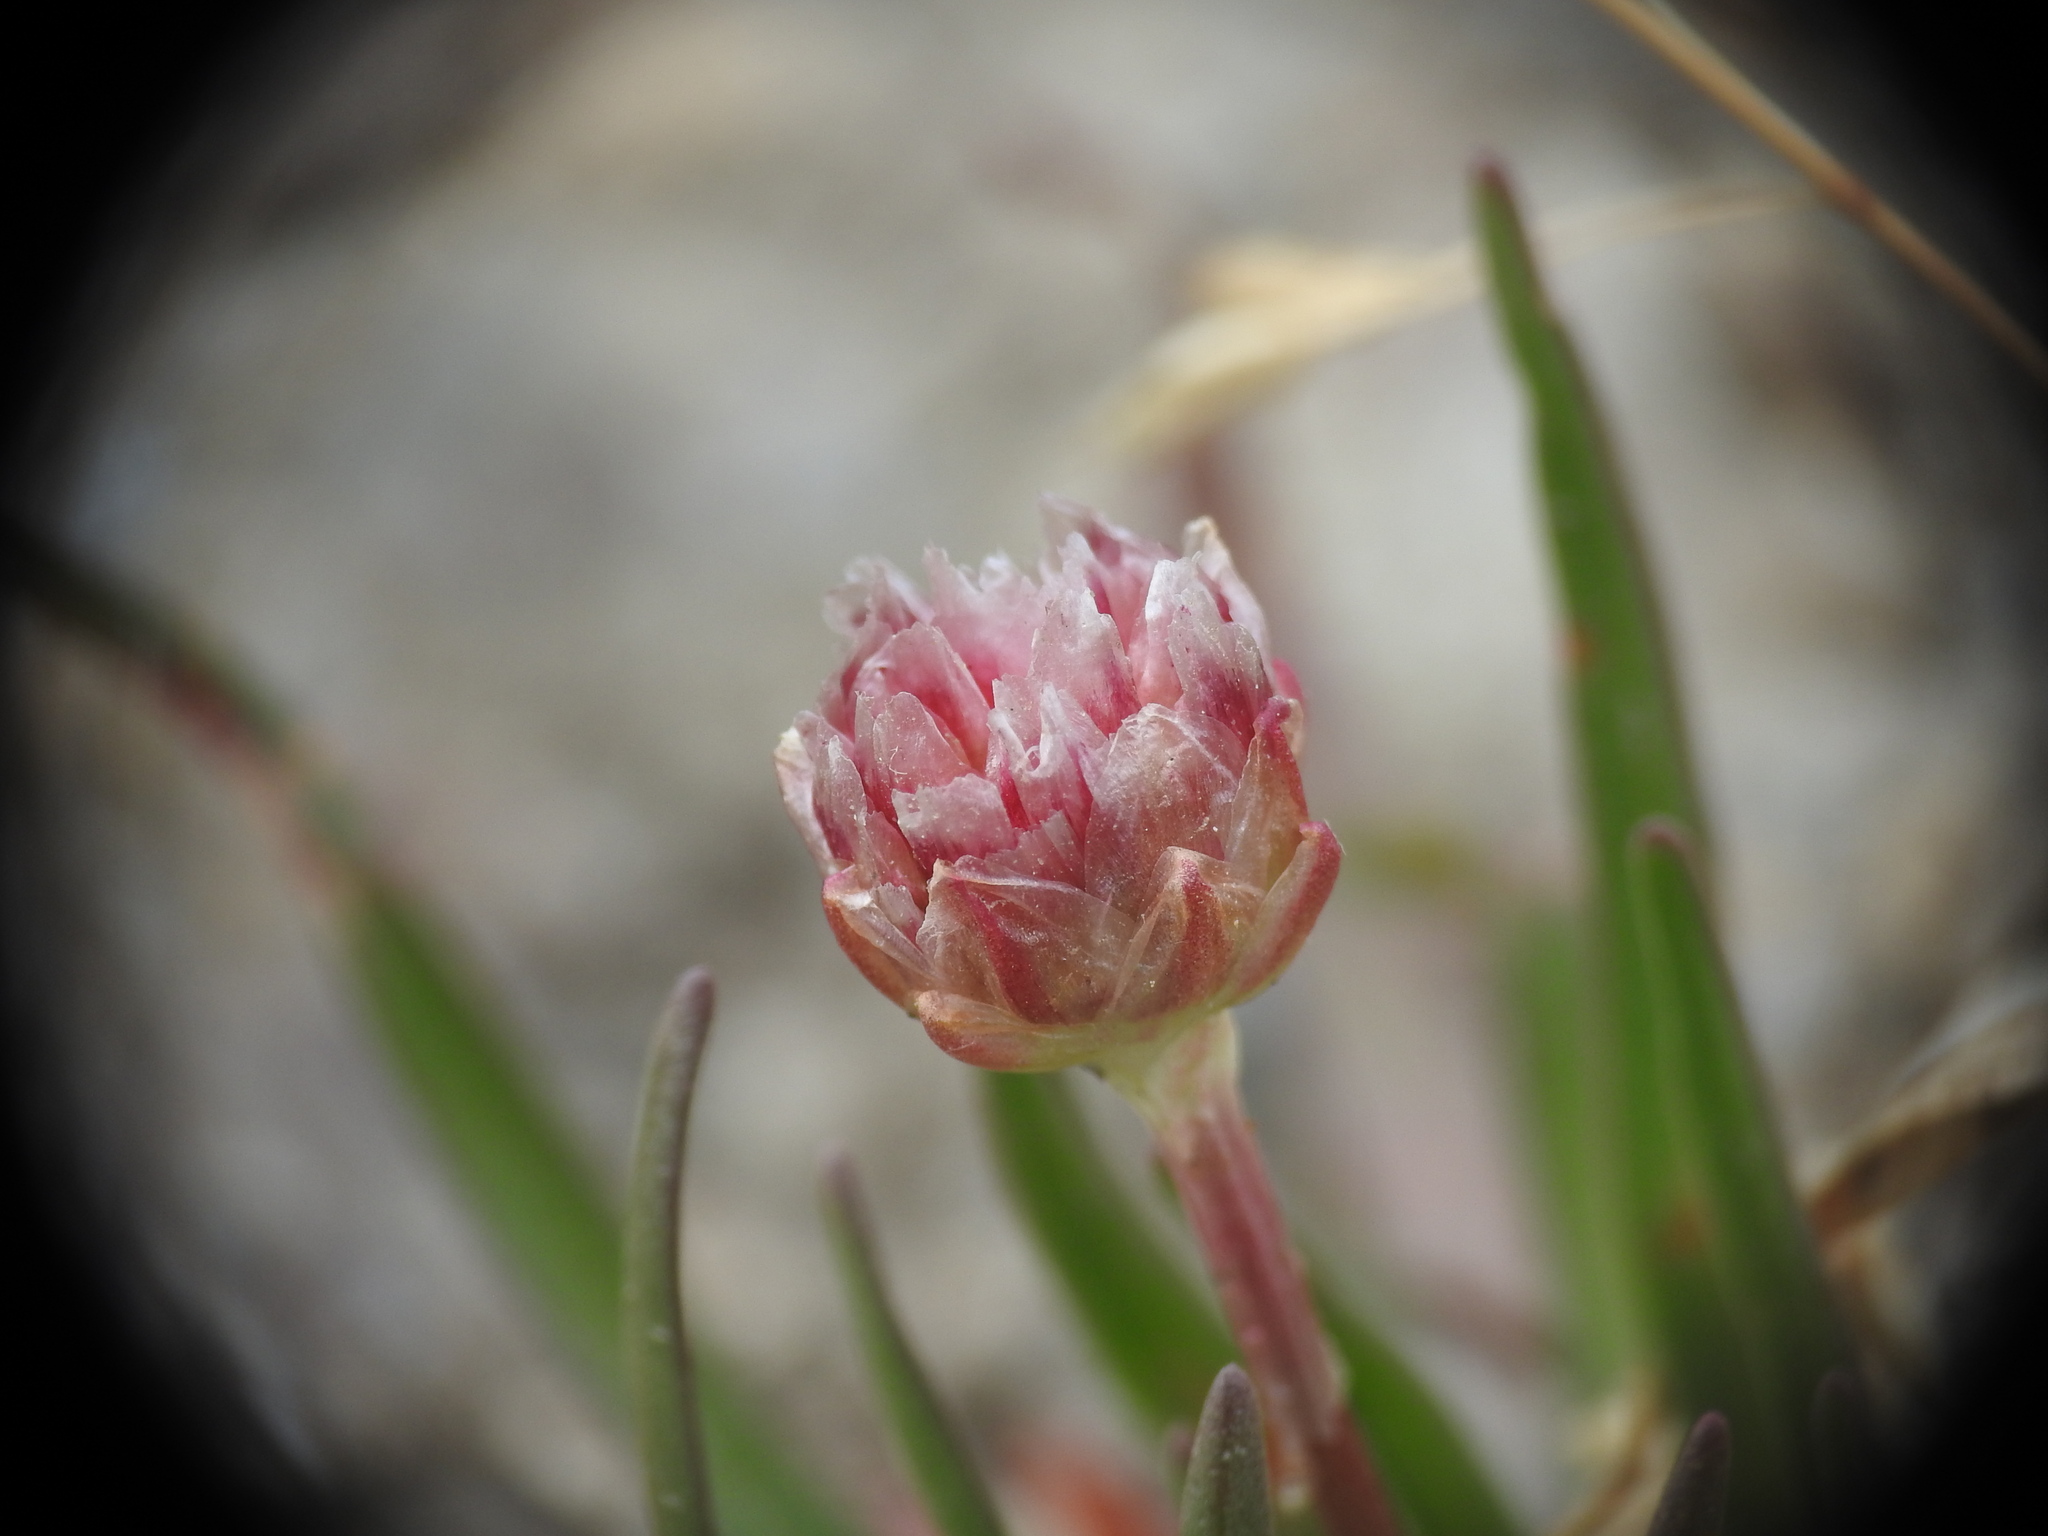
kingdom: Plantae
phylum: Tracheophyta
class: Magnoliopsida
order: Caryophyllales
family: Plumbaginaceae
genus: Armeria
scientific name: Armeria alpina
